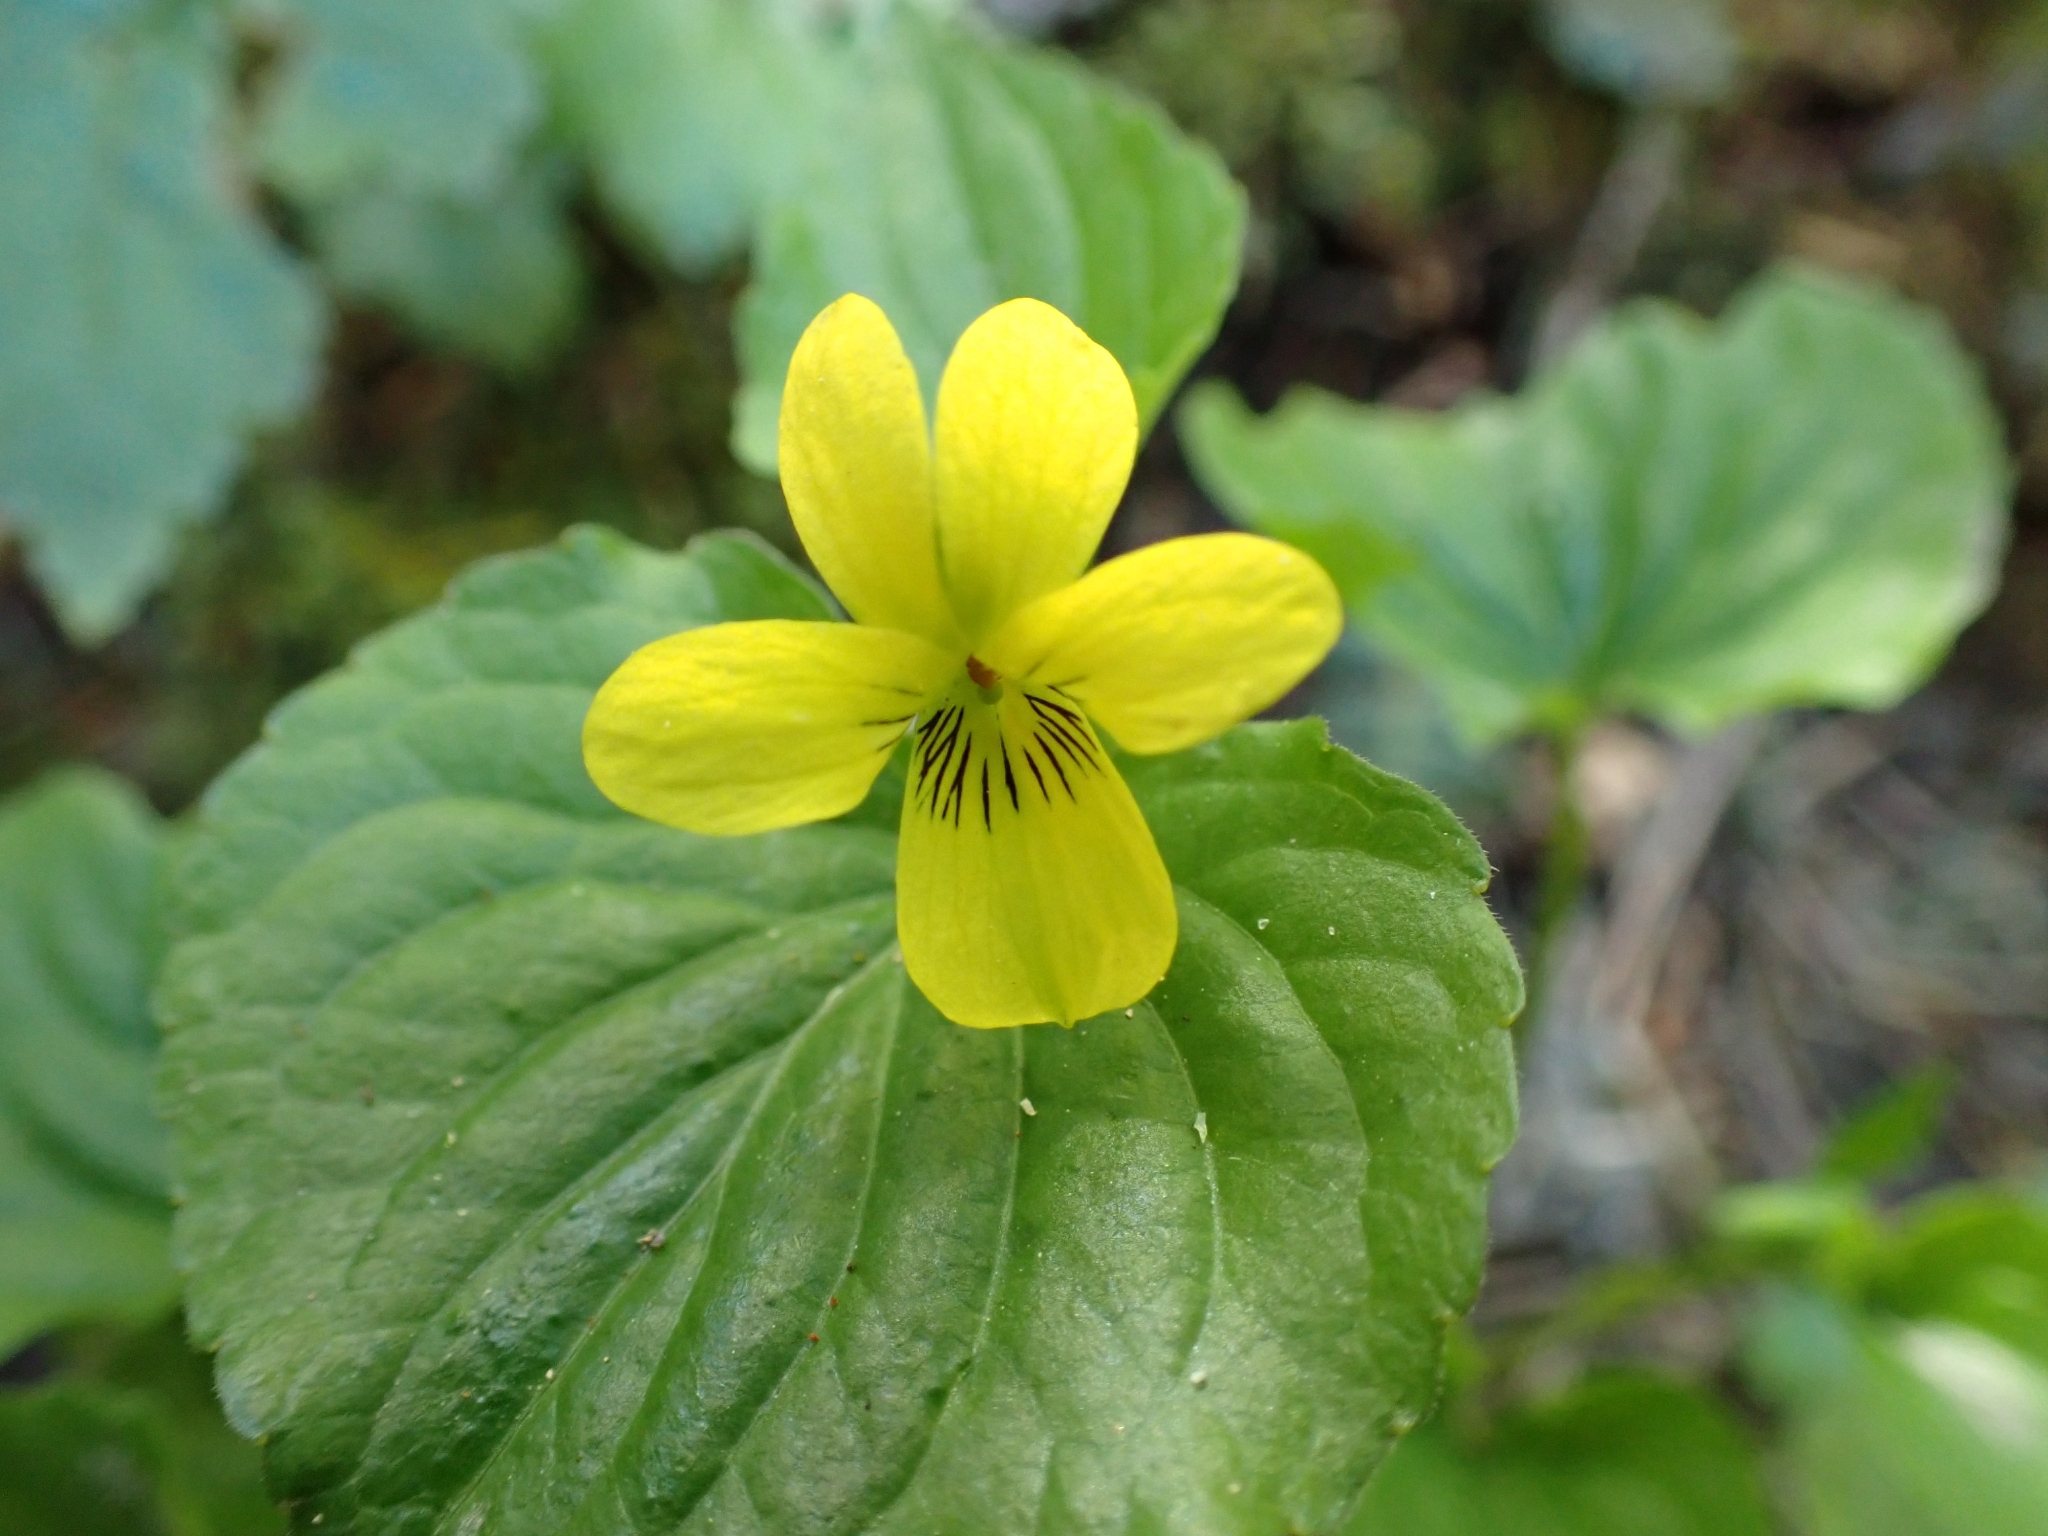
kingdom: Plantae
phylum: Tracheophyta
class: Magnoliopsida
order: Malpighiales
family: Violaceae
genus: Viola
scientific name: Viola glabella
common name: Stream violet
